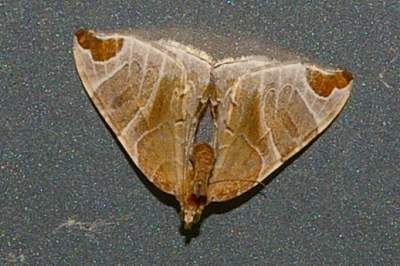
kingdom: Animalia
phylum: Arthropoda
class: Insecta
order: Lepidoptera
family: Geometridae
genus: Eulithis
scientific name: Eulithis ledereri
